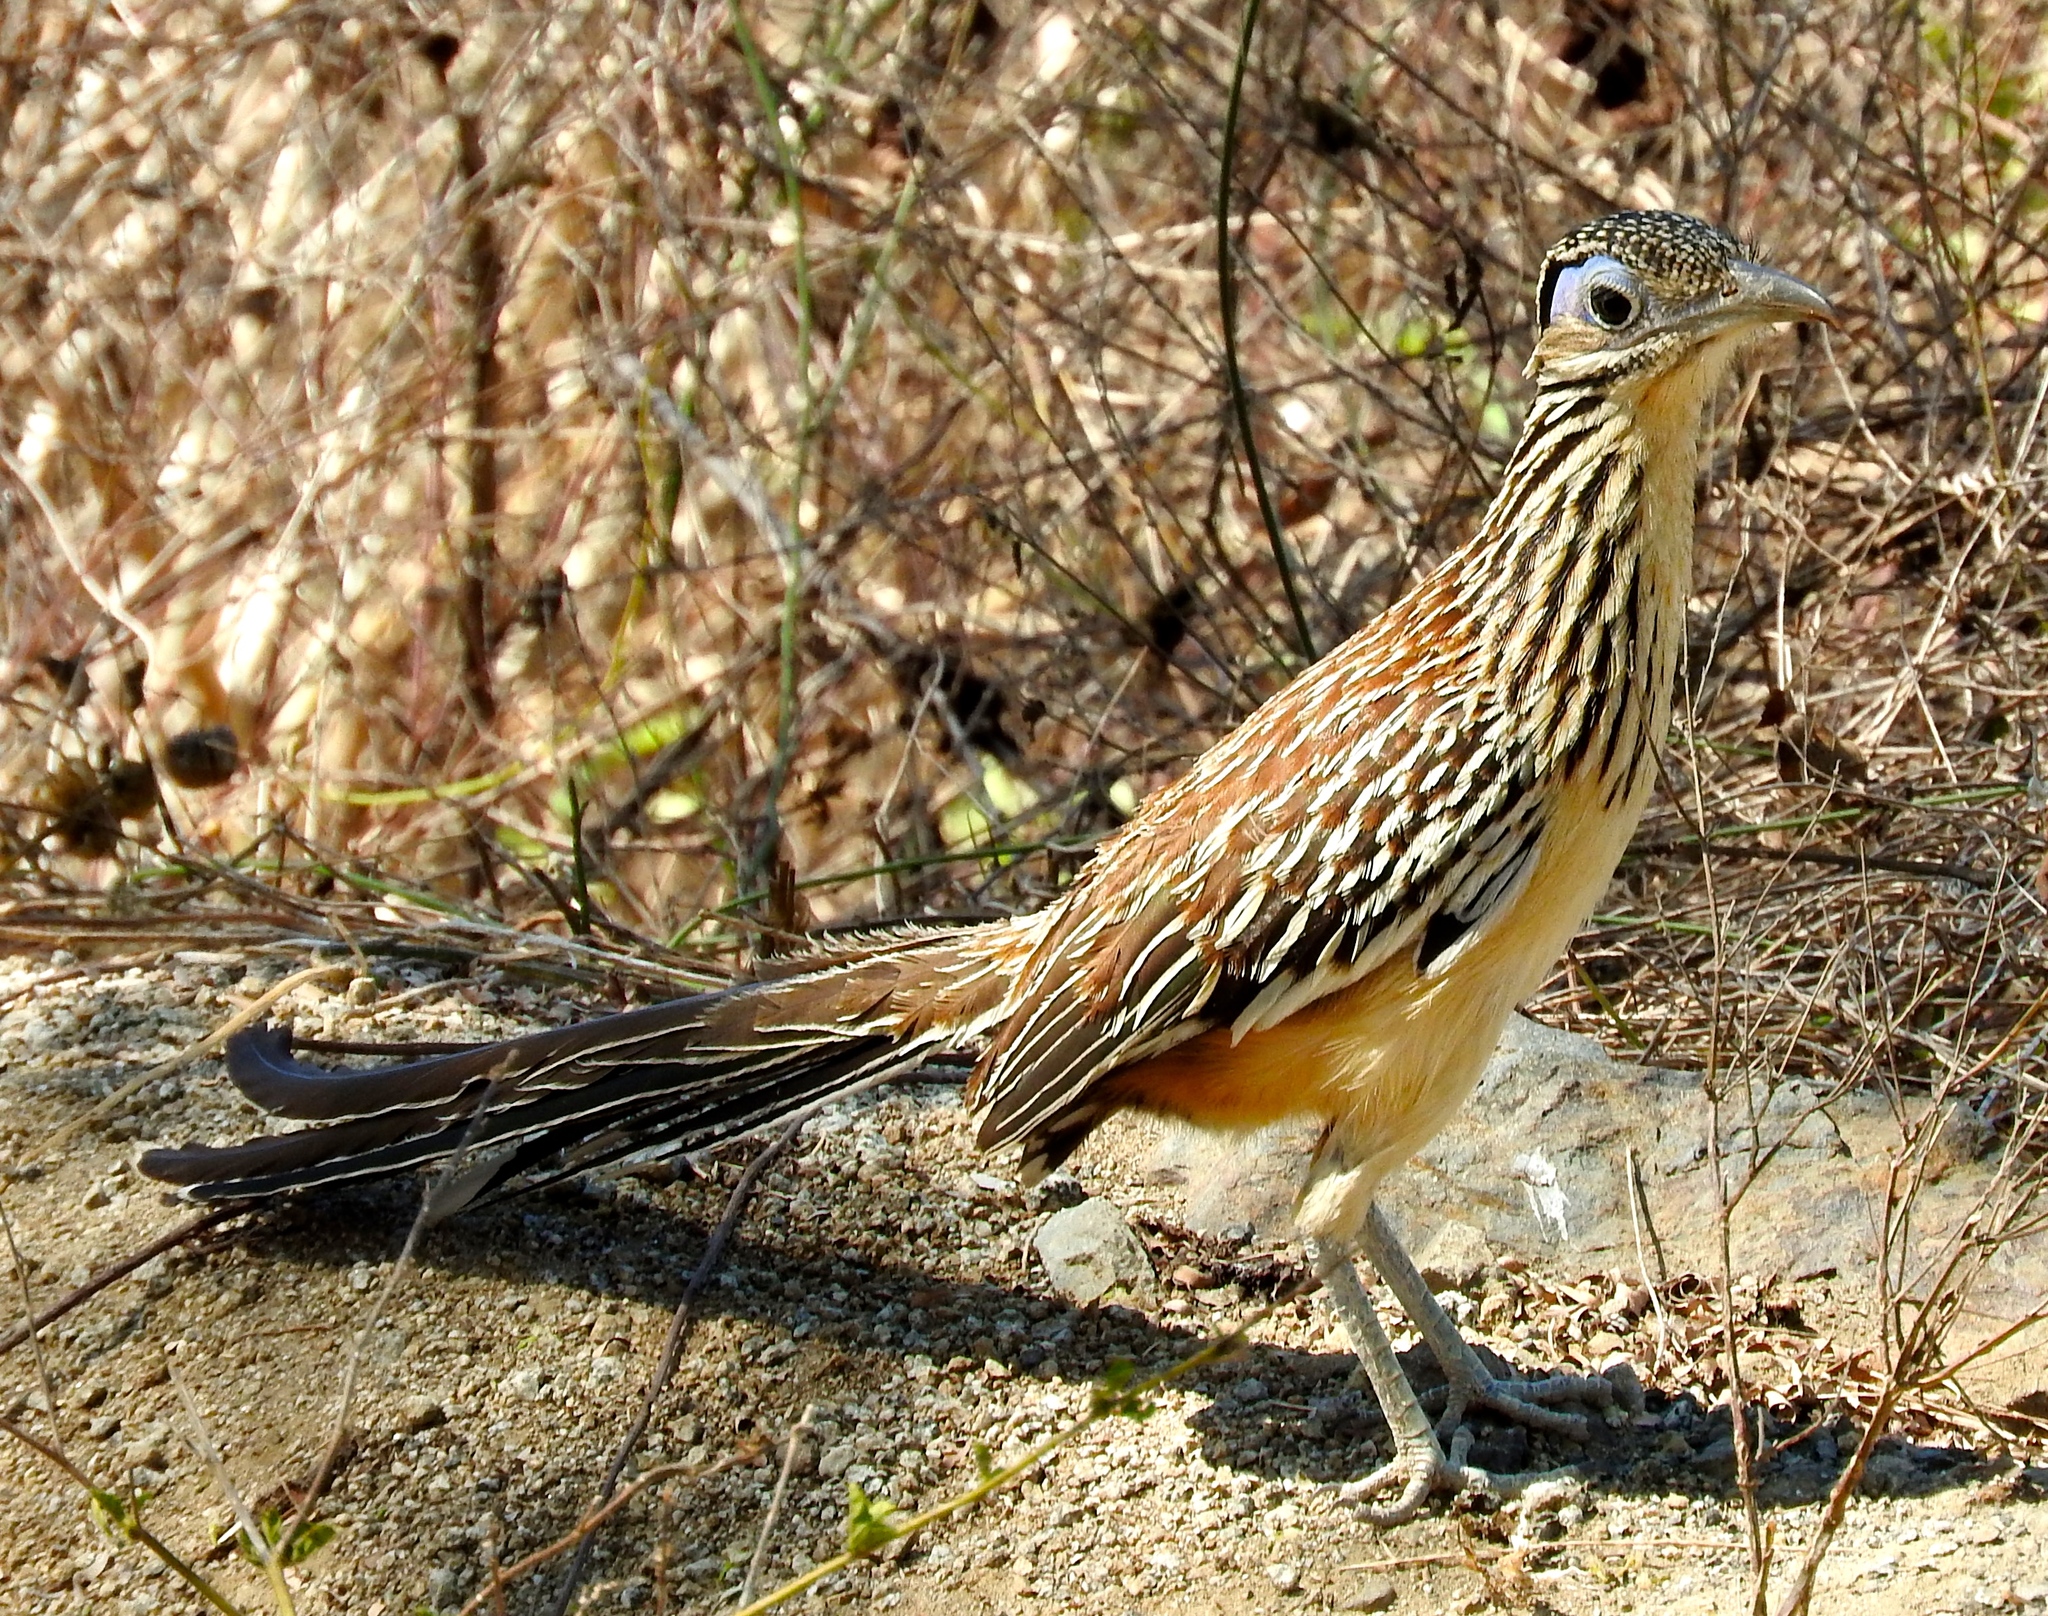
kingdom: Animalia
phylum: Chordata
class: Aves
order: Cuculiformes
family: Cuculidae
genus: Geococcyx
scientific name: Geococcyx velox
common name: Lesser roadrunner
